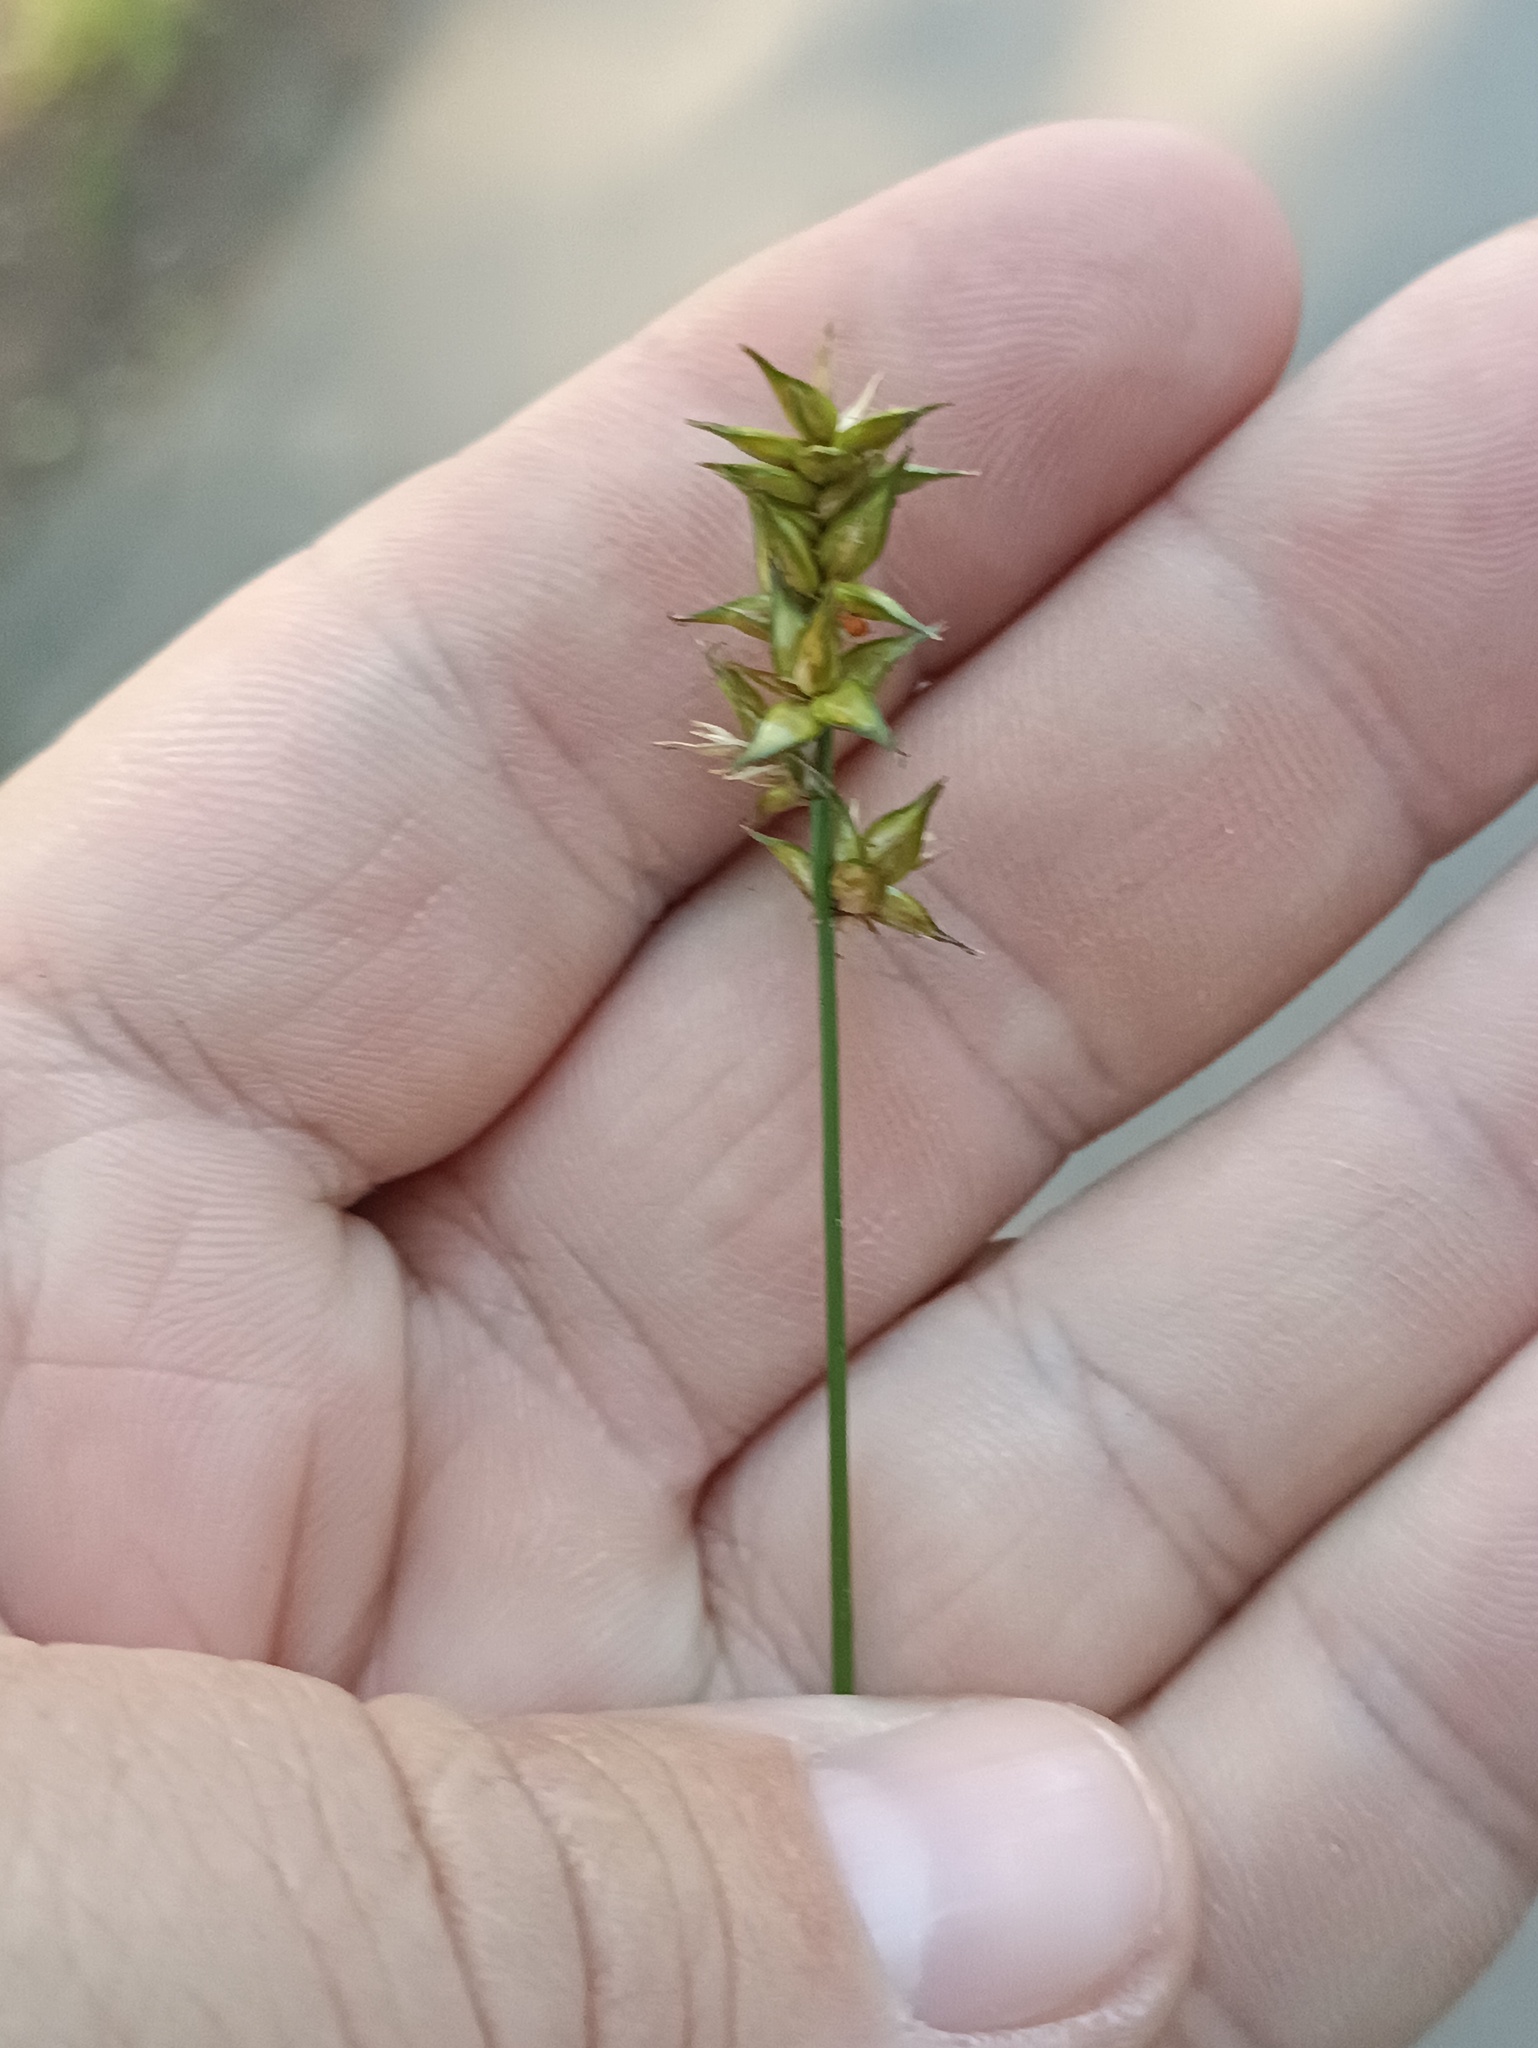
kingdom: Plantae
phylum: Tracheophyta
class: Liliopsida
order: Poales
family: Cyperaceae
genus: Carex
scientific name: Carex spicata
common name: Spiked sedge
